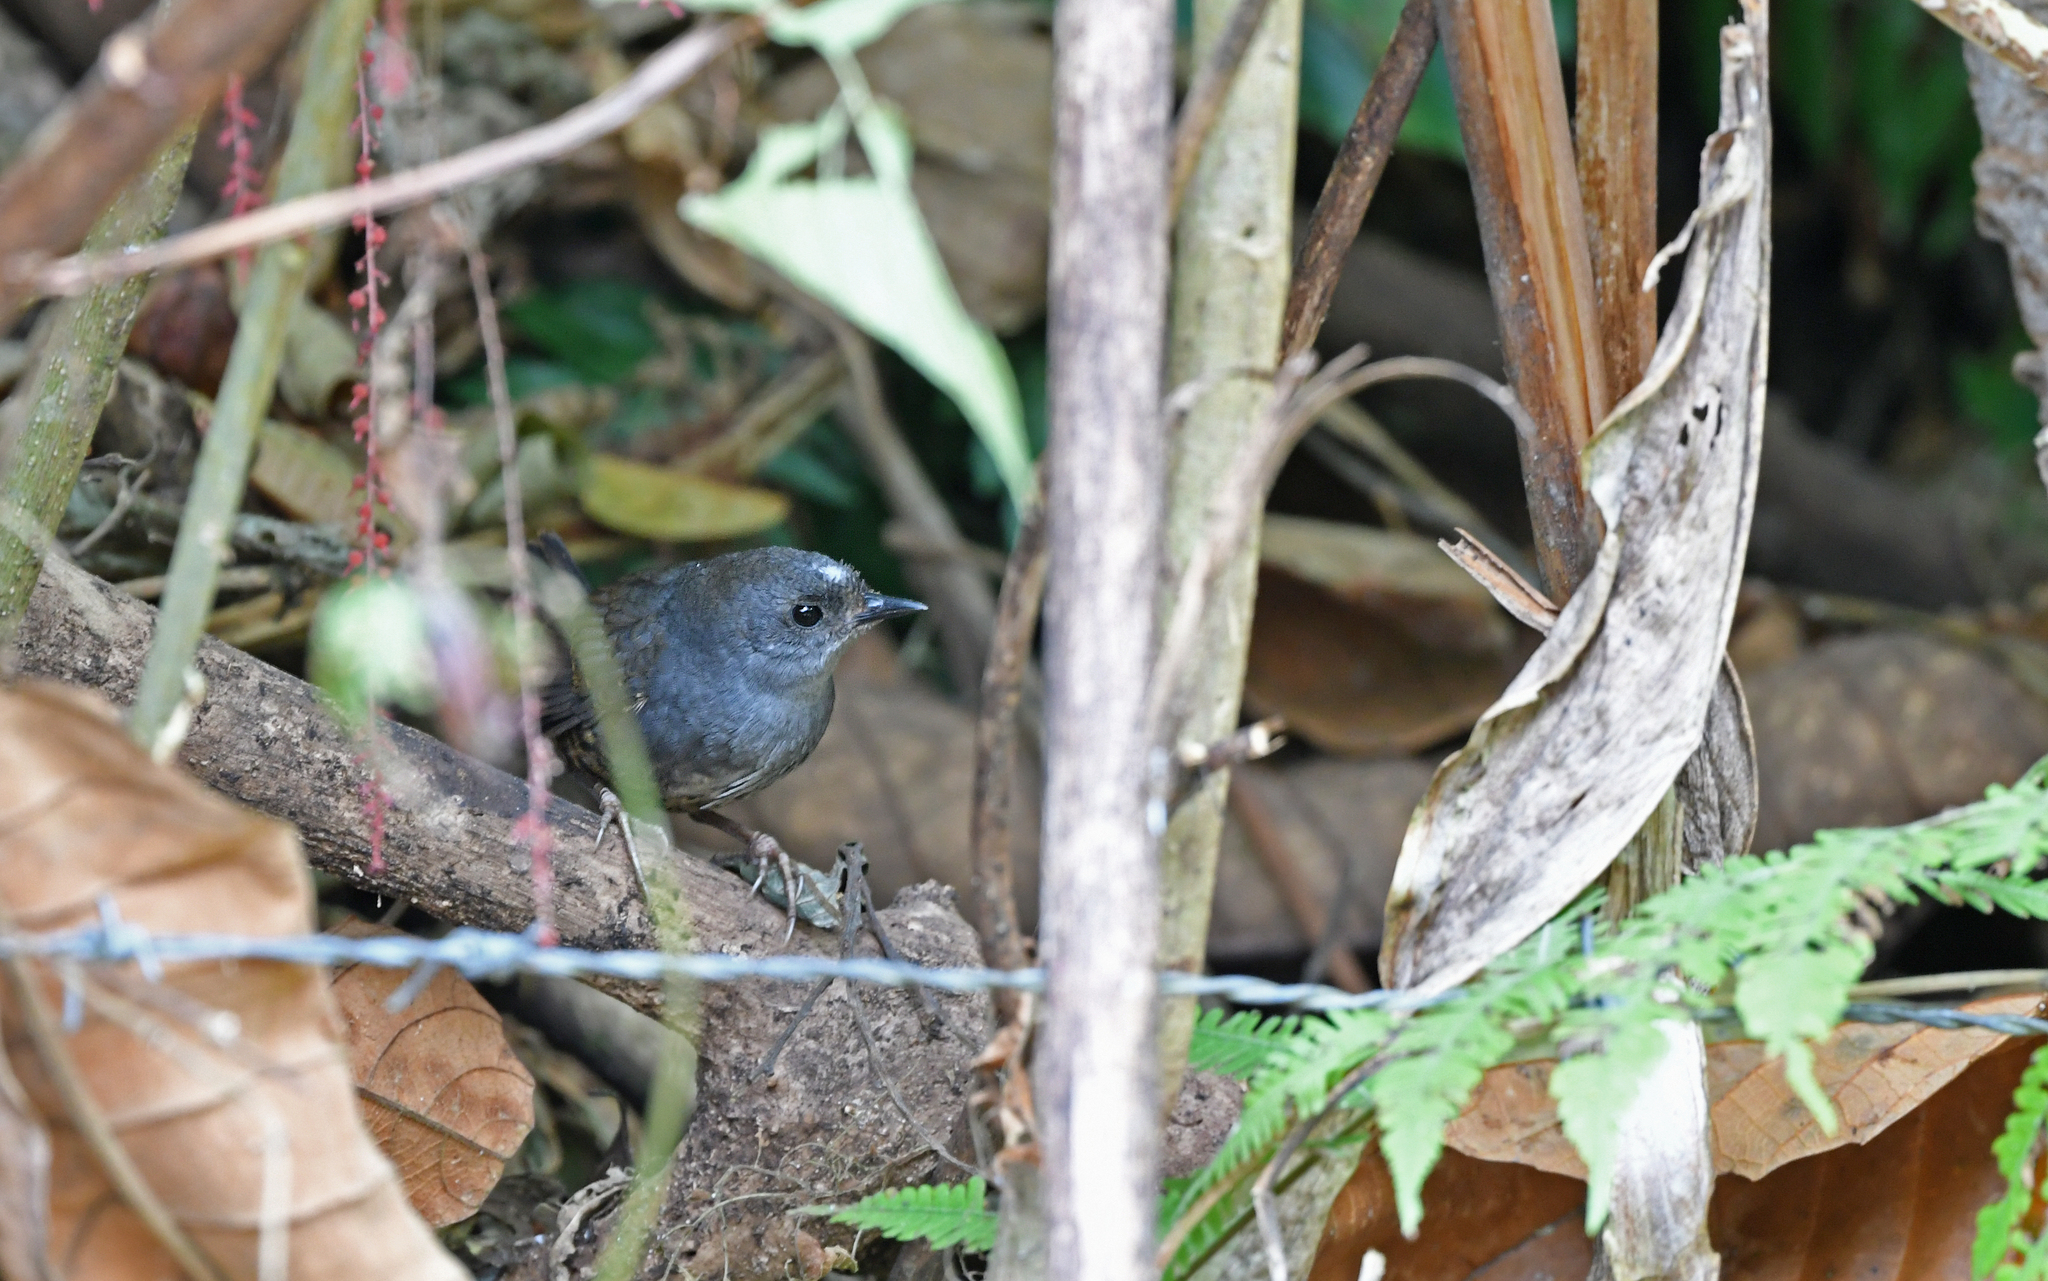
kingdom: Animalia
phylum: Chordata
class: Aves
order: Passeriformes
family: Rhinocryptidae
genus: Scytalopus
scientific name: Scytalopus sanctaemartae
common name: Santa marta tapaculo
